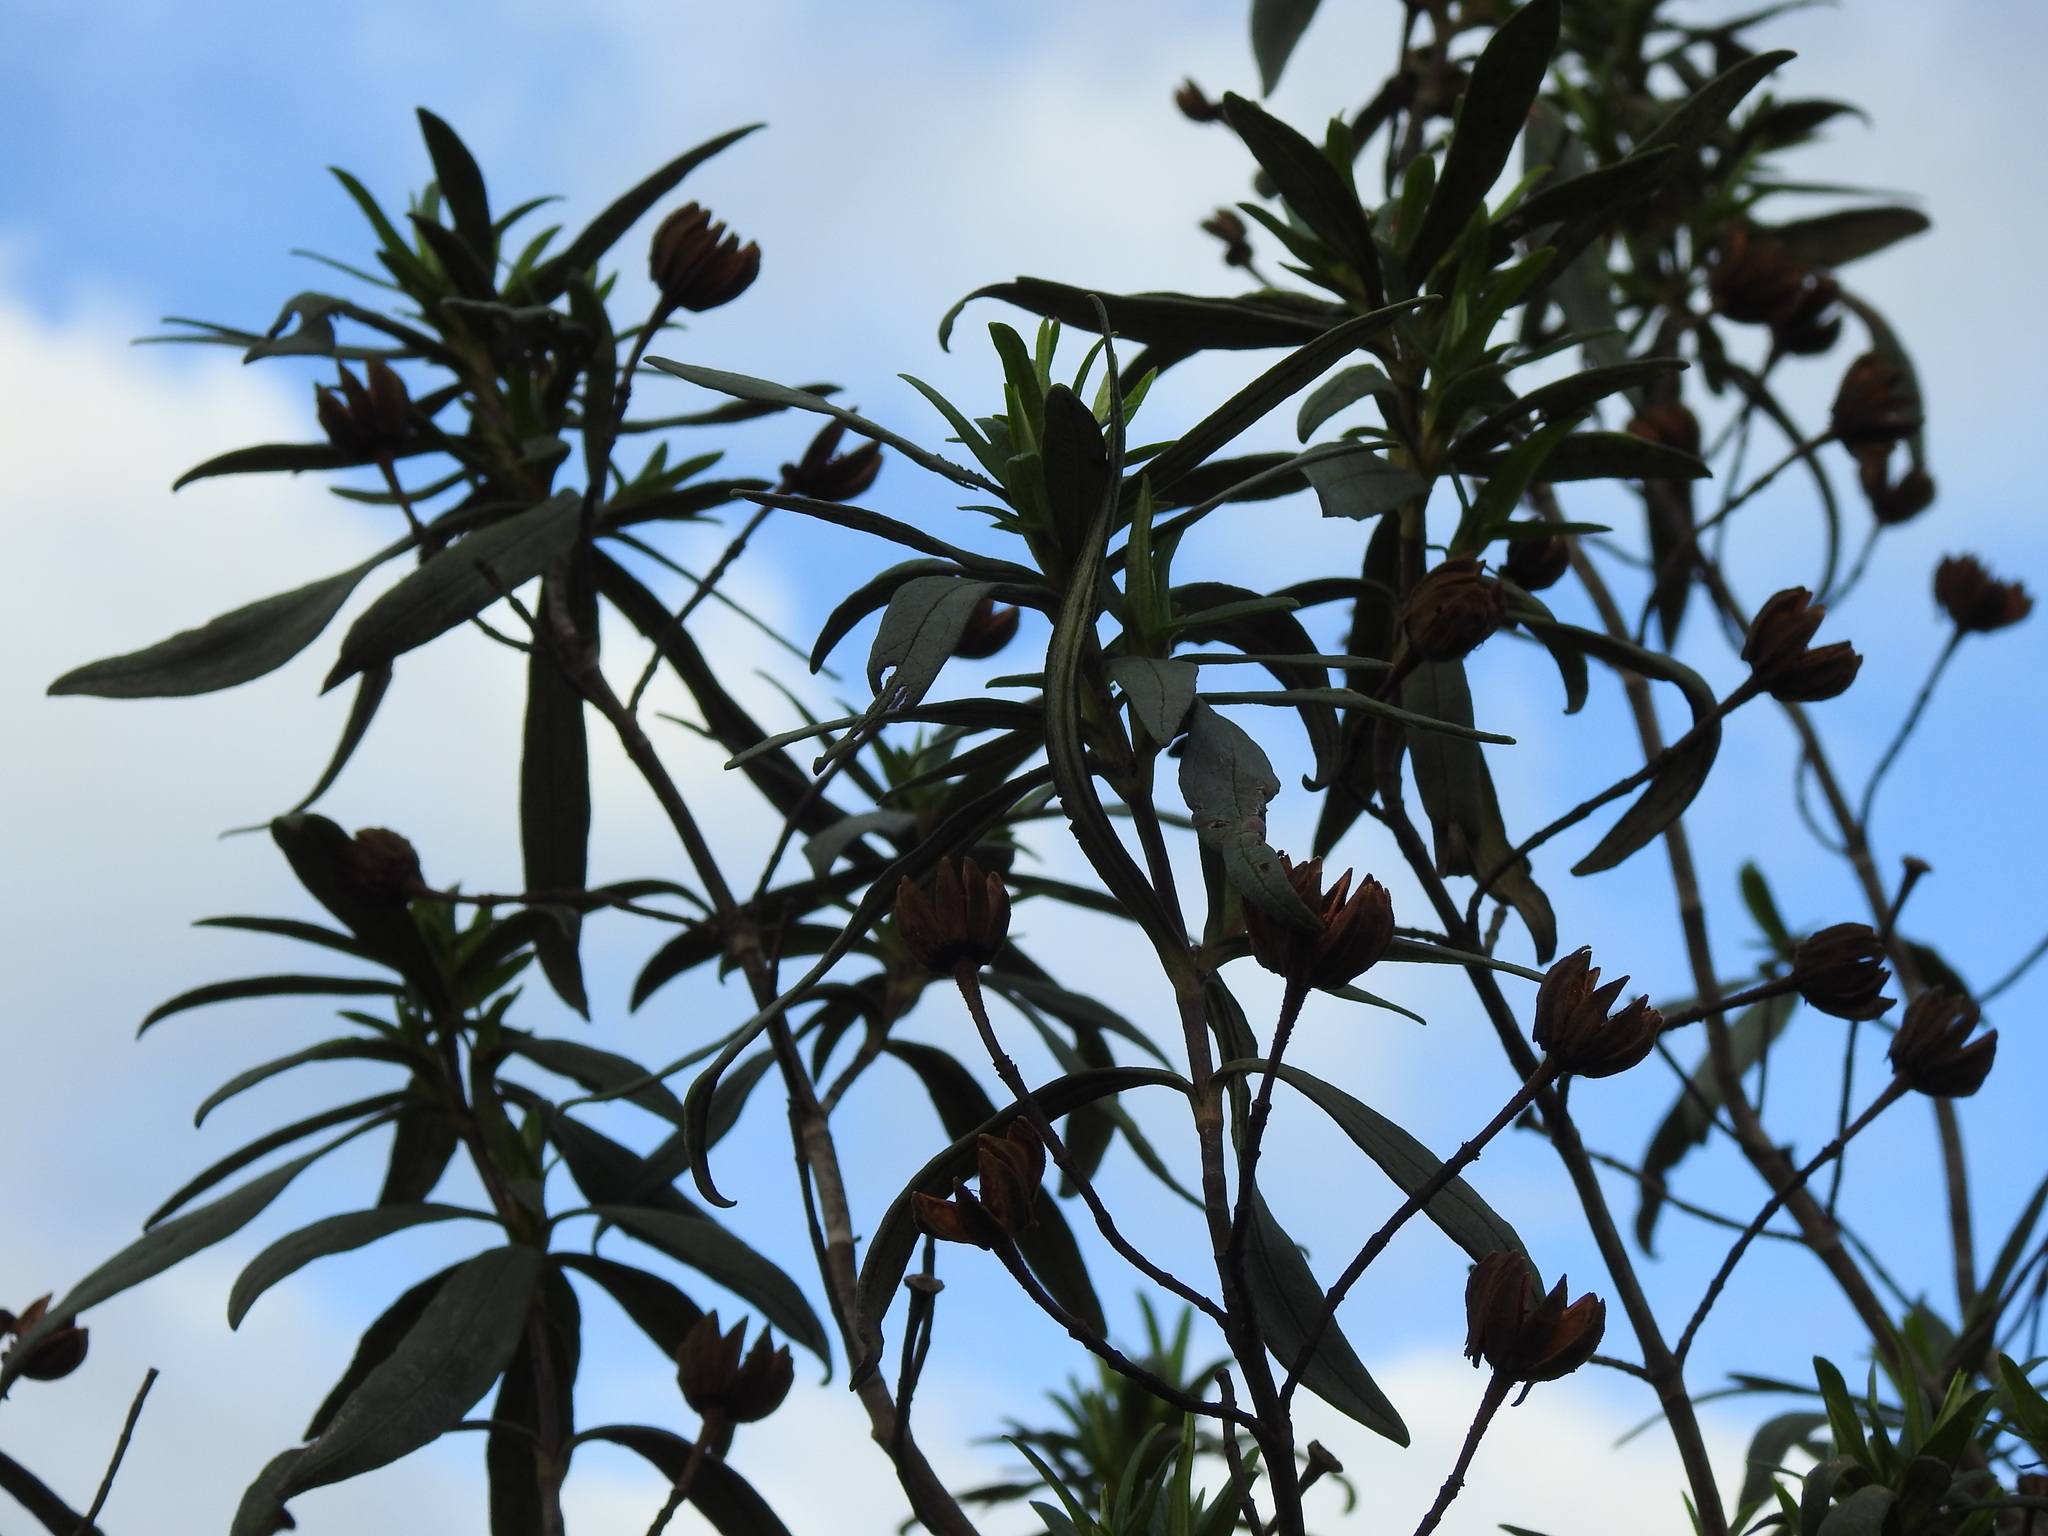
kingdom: Plantae
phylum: Tracheophyta
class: Magnoliopsida
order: Malvales
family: Cistaceae
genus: Cistus
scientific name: Cistus ladanifer
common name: Common gum cistus
